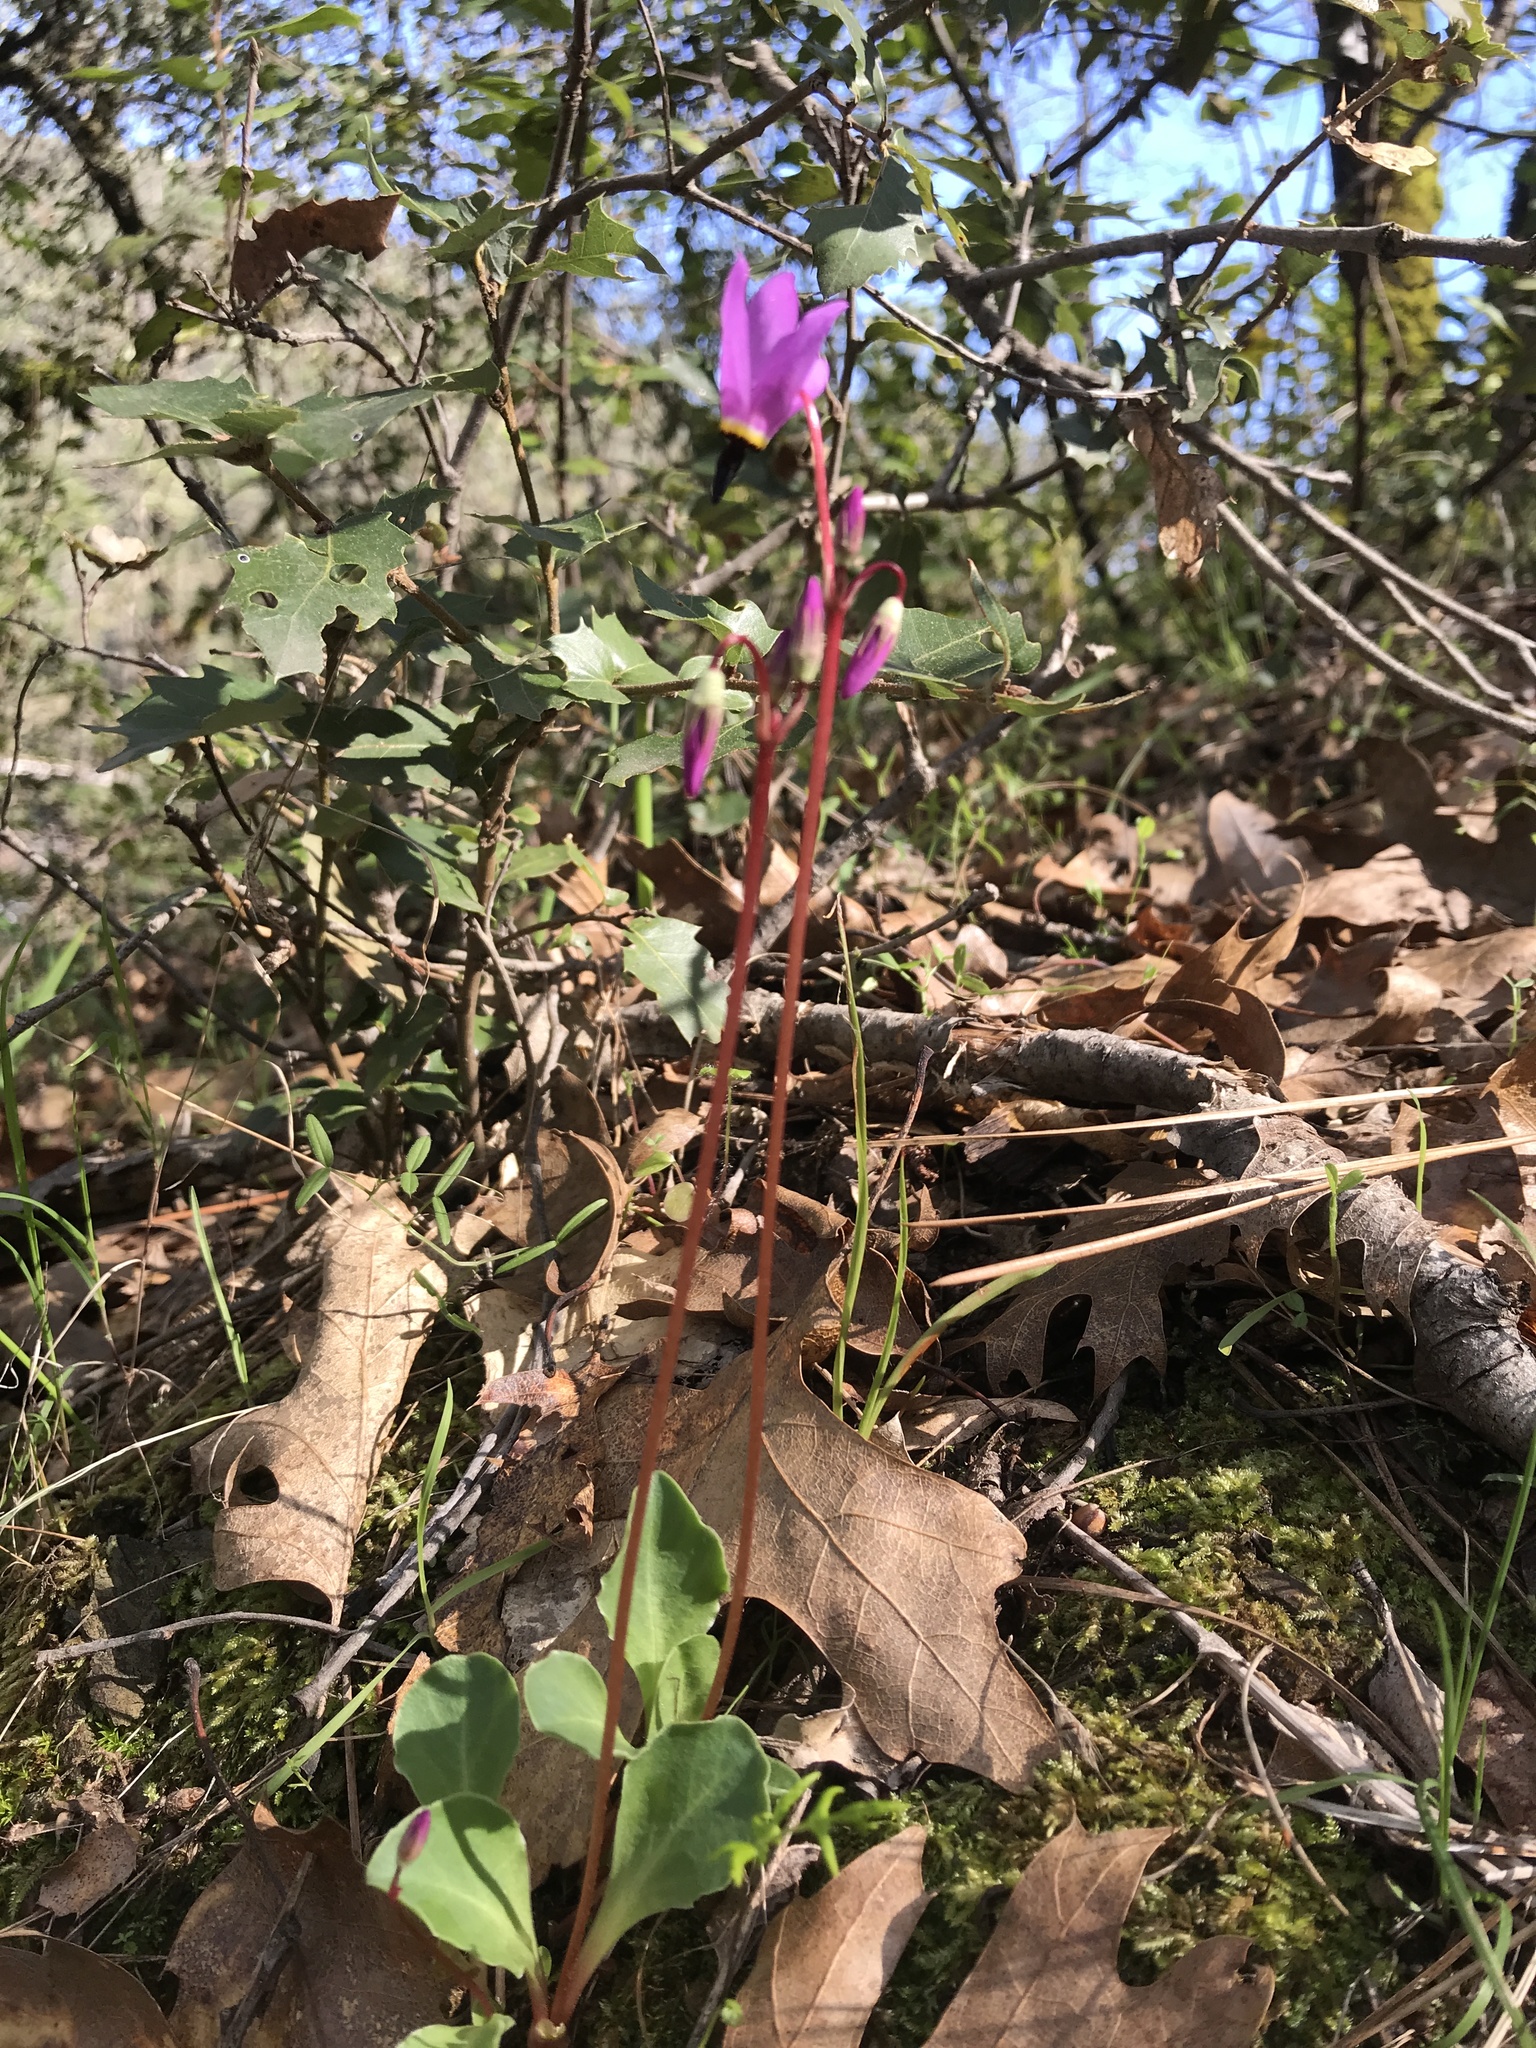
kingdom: Plantae
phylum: Tracheophyta
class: Magnoliopsida
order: Ericales
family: Primulaceae
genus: Dodecatheon
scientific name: Dodecatheon hendersonii
